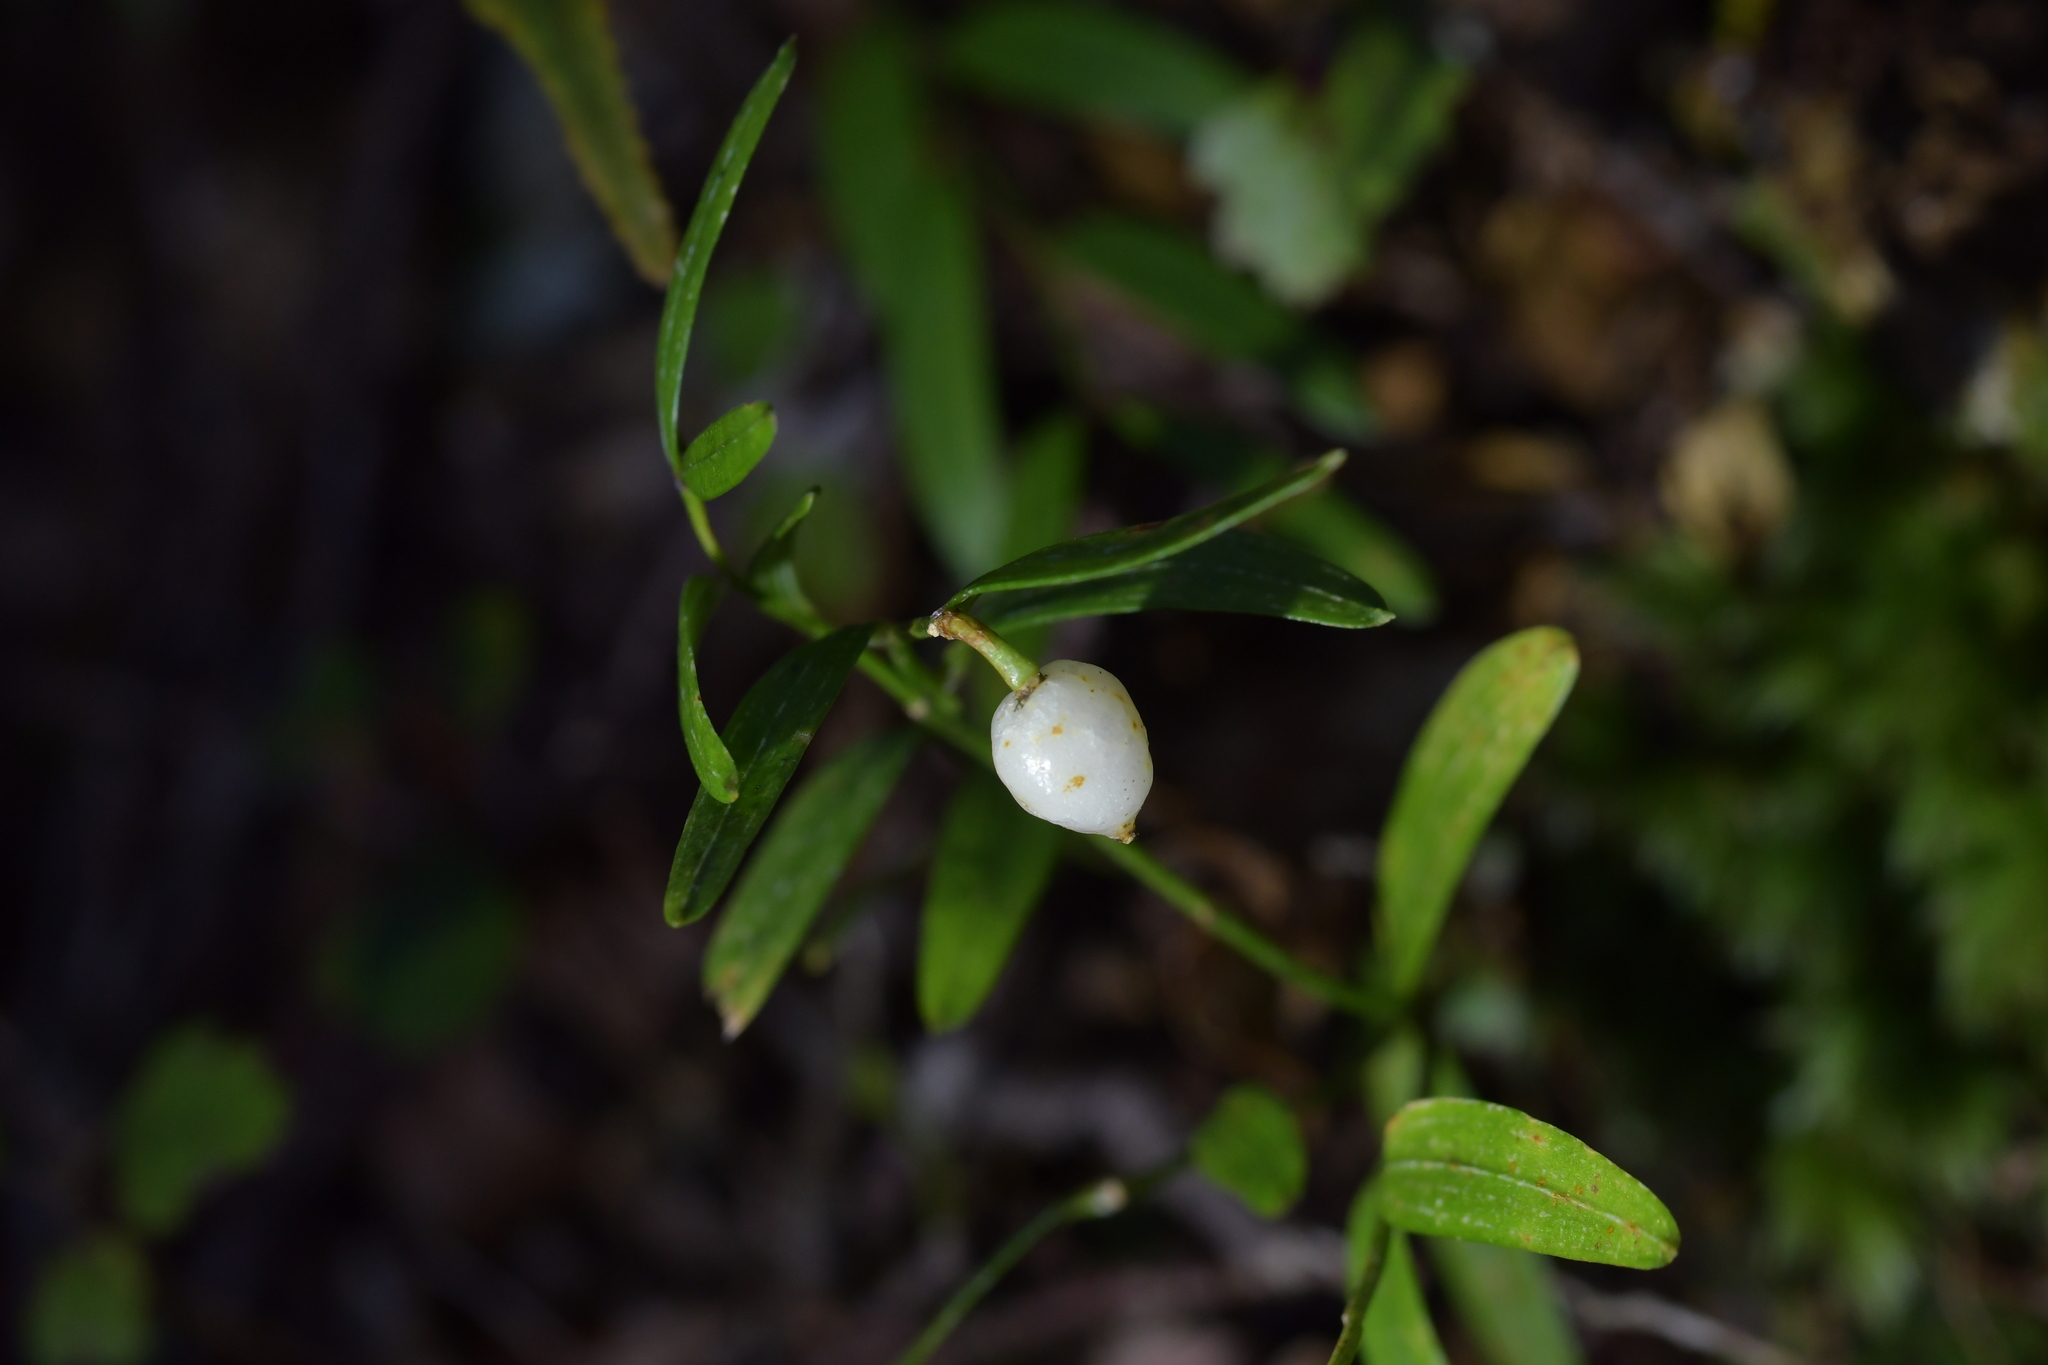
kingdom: Plantae
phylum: Tracheophyta
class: Liliopsida
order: Liliales
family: Alstroemeriaceae
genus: Luzuriaga
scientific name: Luzuriaga parviflora
